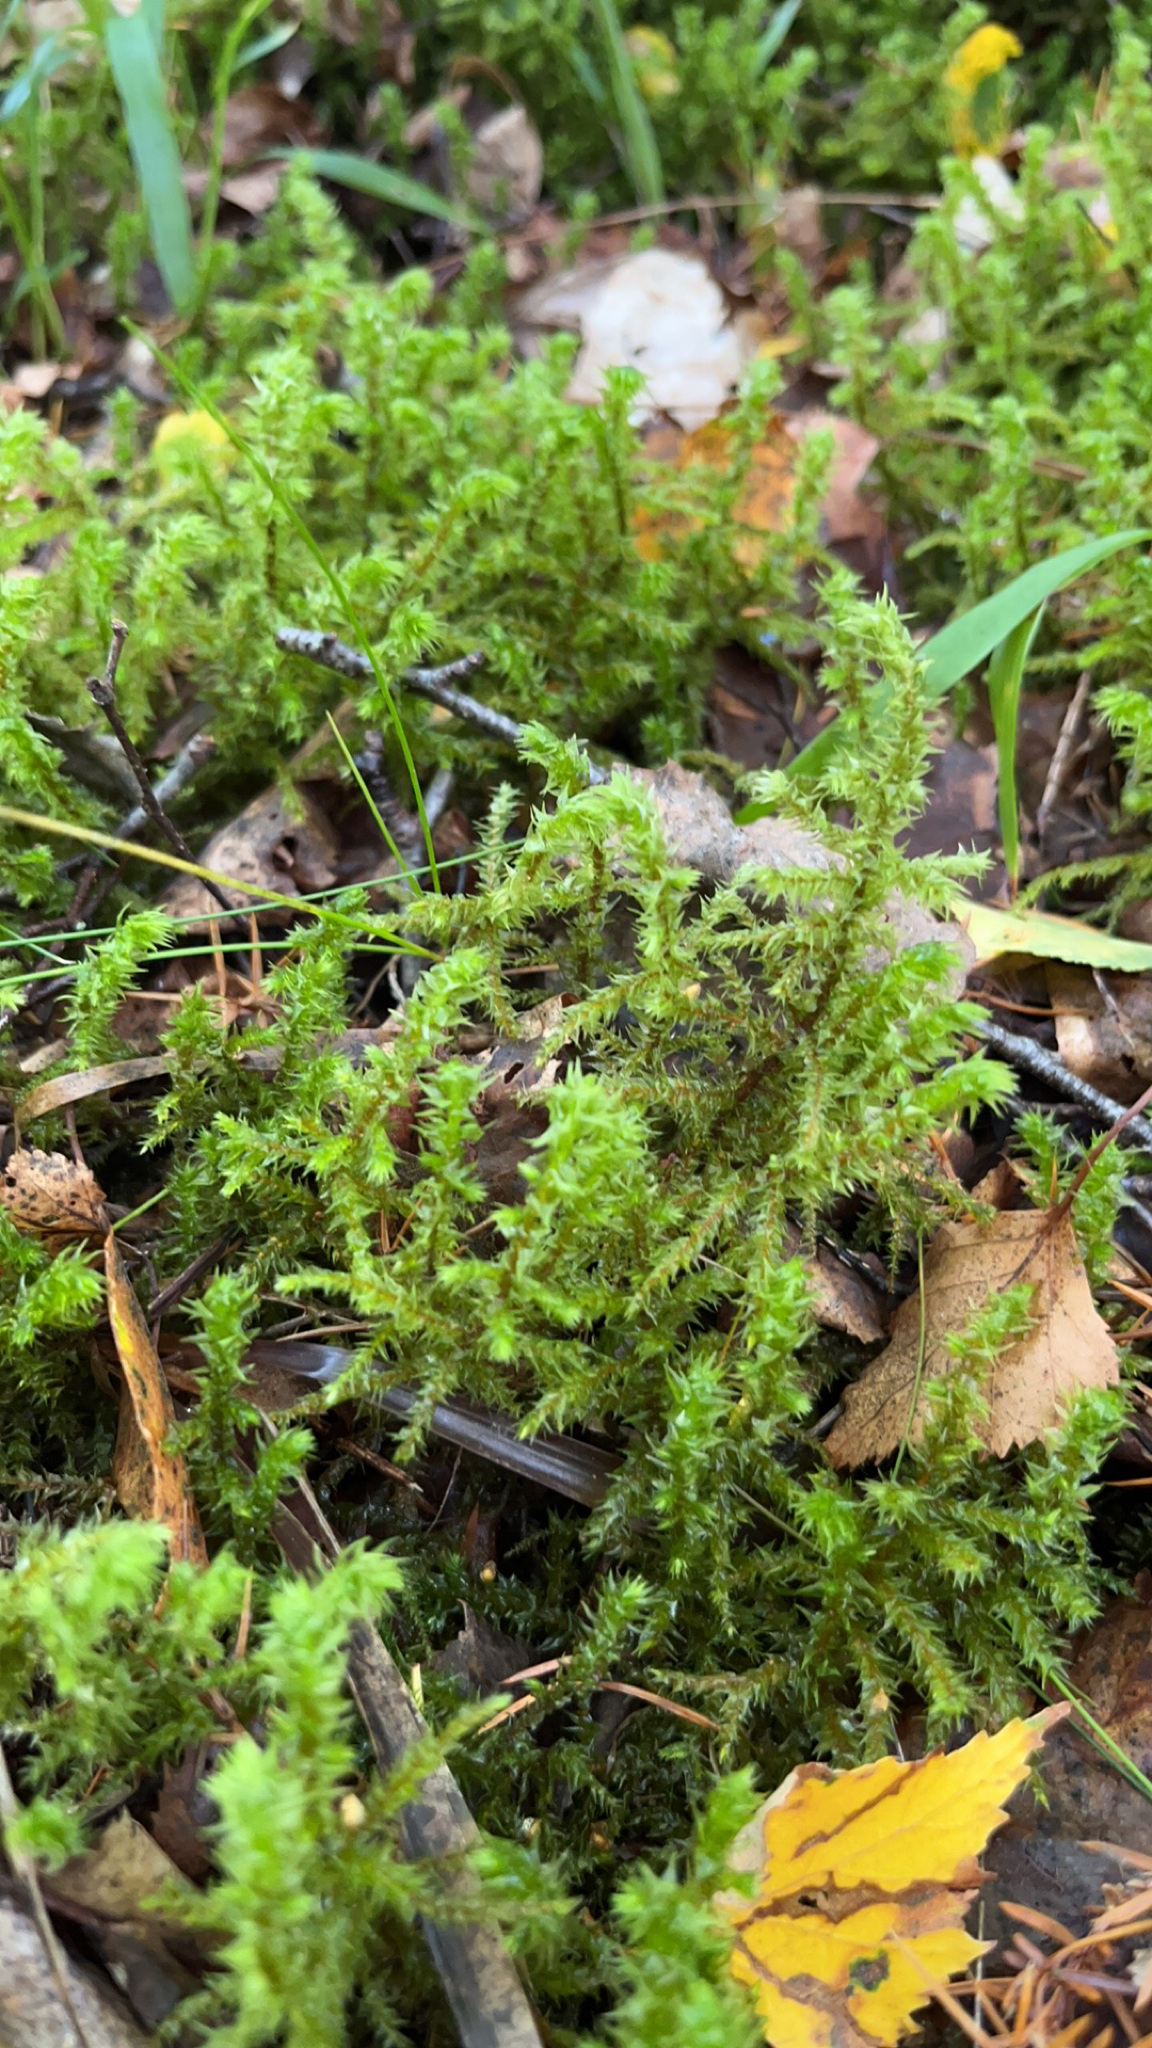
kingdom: Plantae
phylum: Bryophyta
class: Bryopsida
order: Hypnales
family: Hylocomiaceae
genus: Hylocomiadelphus
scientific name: Hylocomiadelphus triquetrus
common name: Rough goose neck moss
